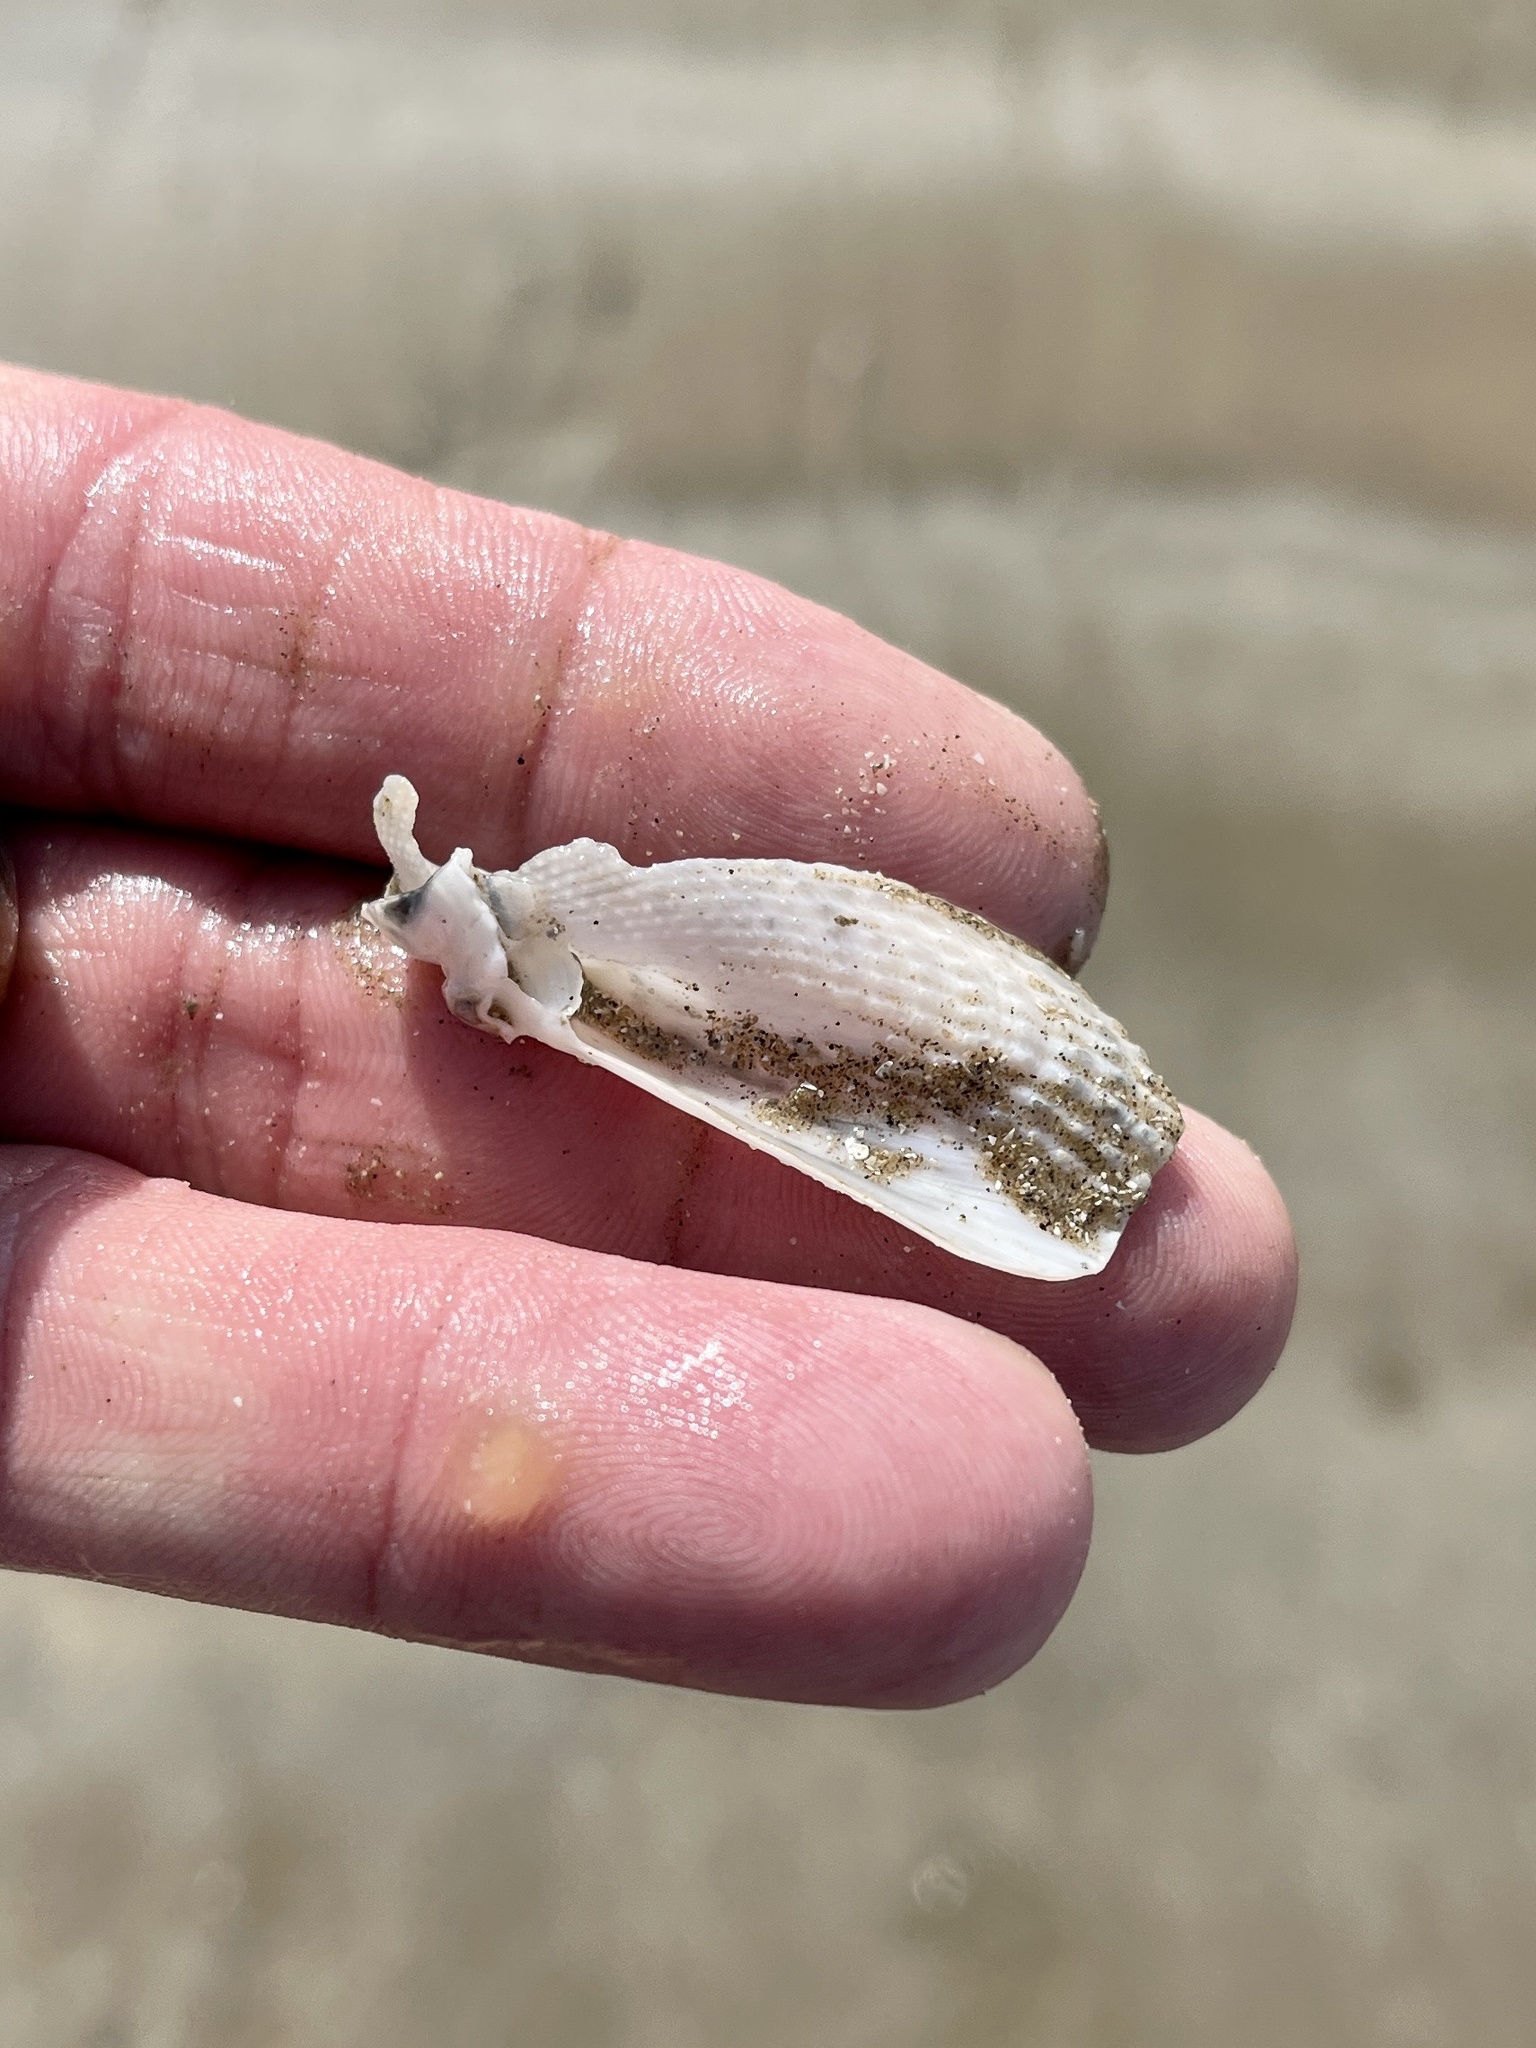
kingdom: Animalia
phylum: Mollusca
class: Bivalvia
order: Myida
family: Pholadidae
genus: Cyrtopleura
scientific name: Cyrtopleura costata
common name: Angel wing
